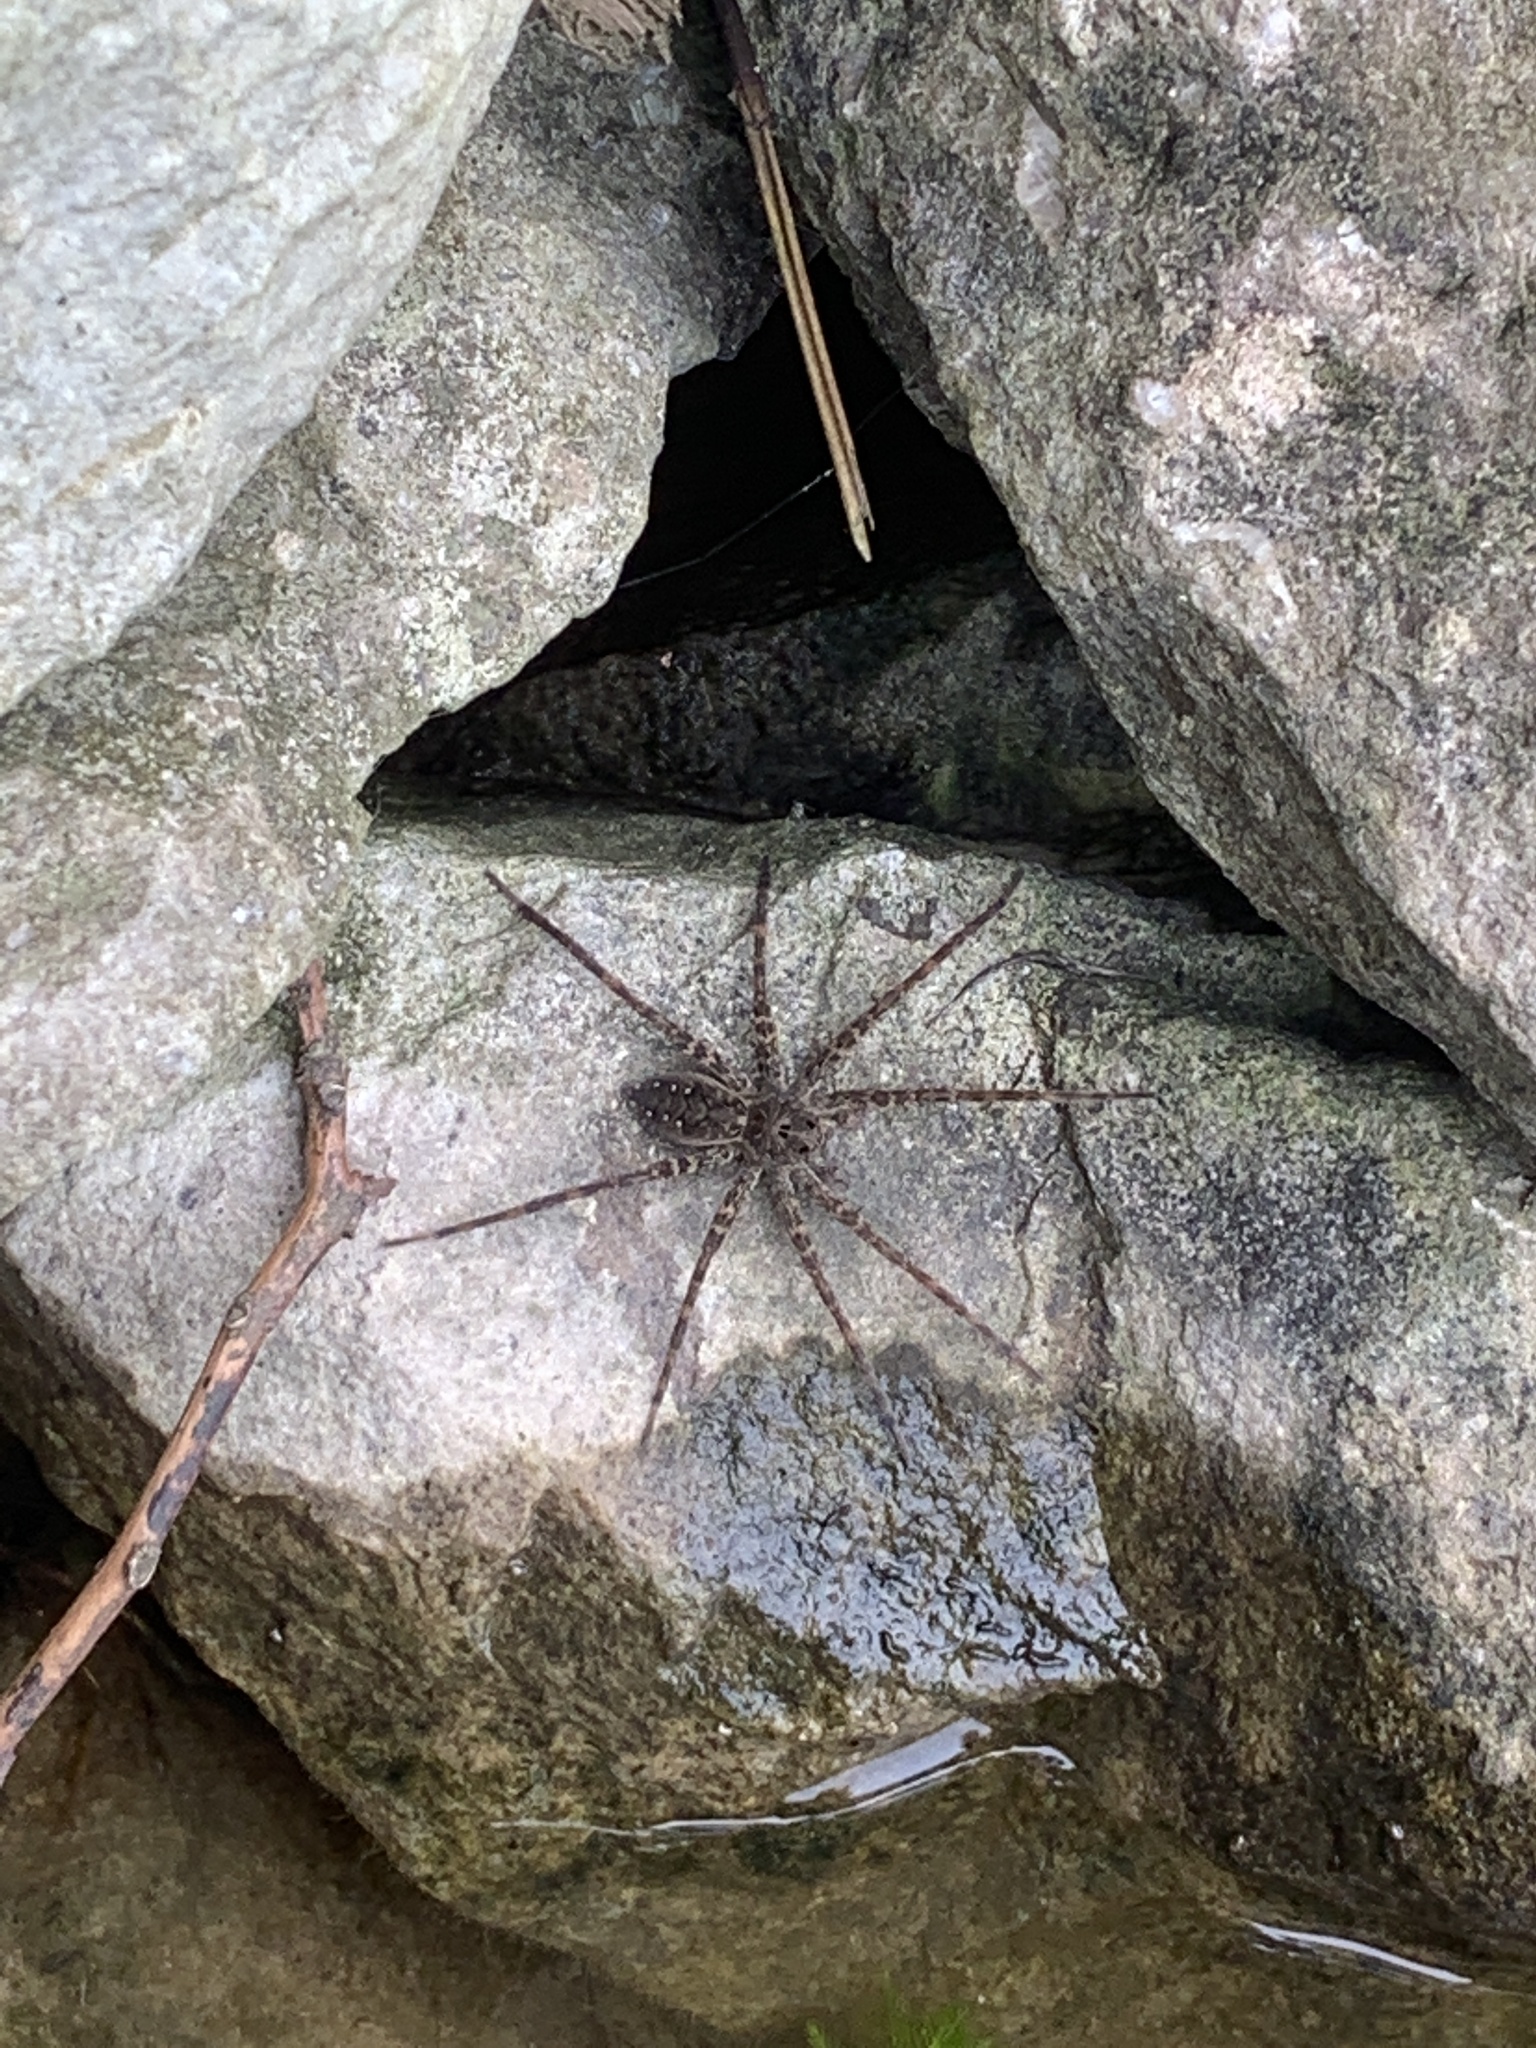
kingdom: Animalia
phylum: Arthropoda
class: Arachnida
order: Araneae
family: Pisauridae
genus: Dolomedes
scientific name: Dolomedes vittatus
